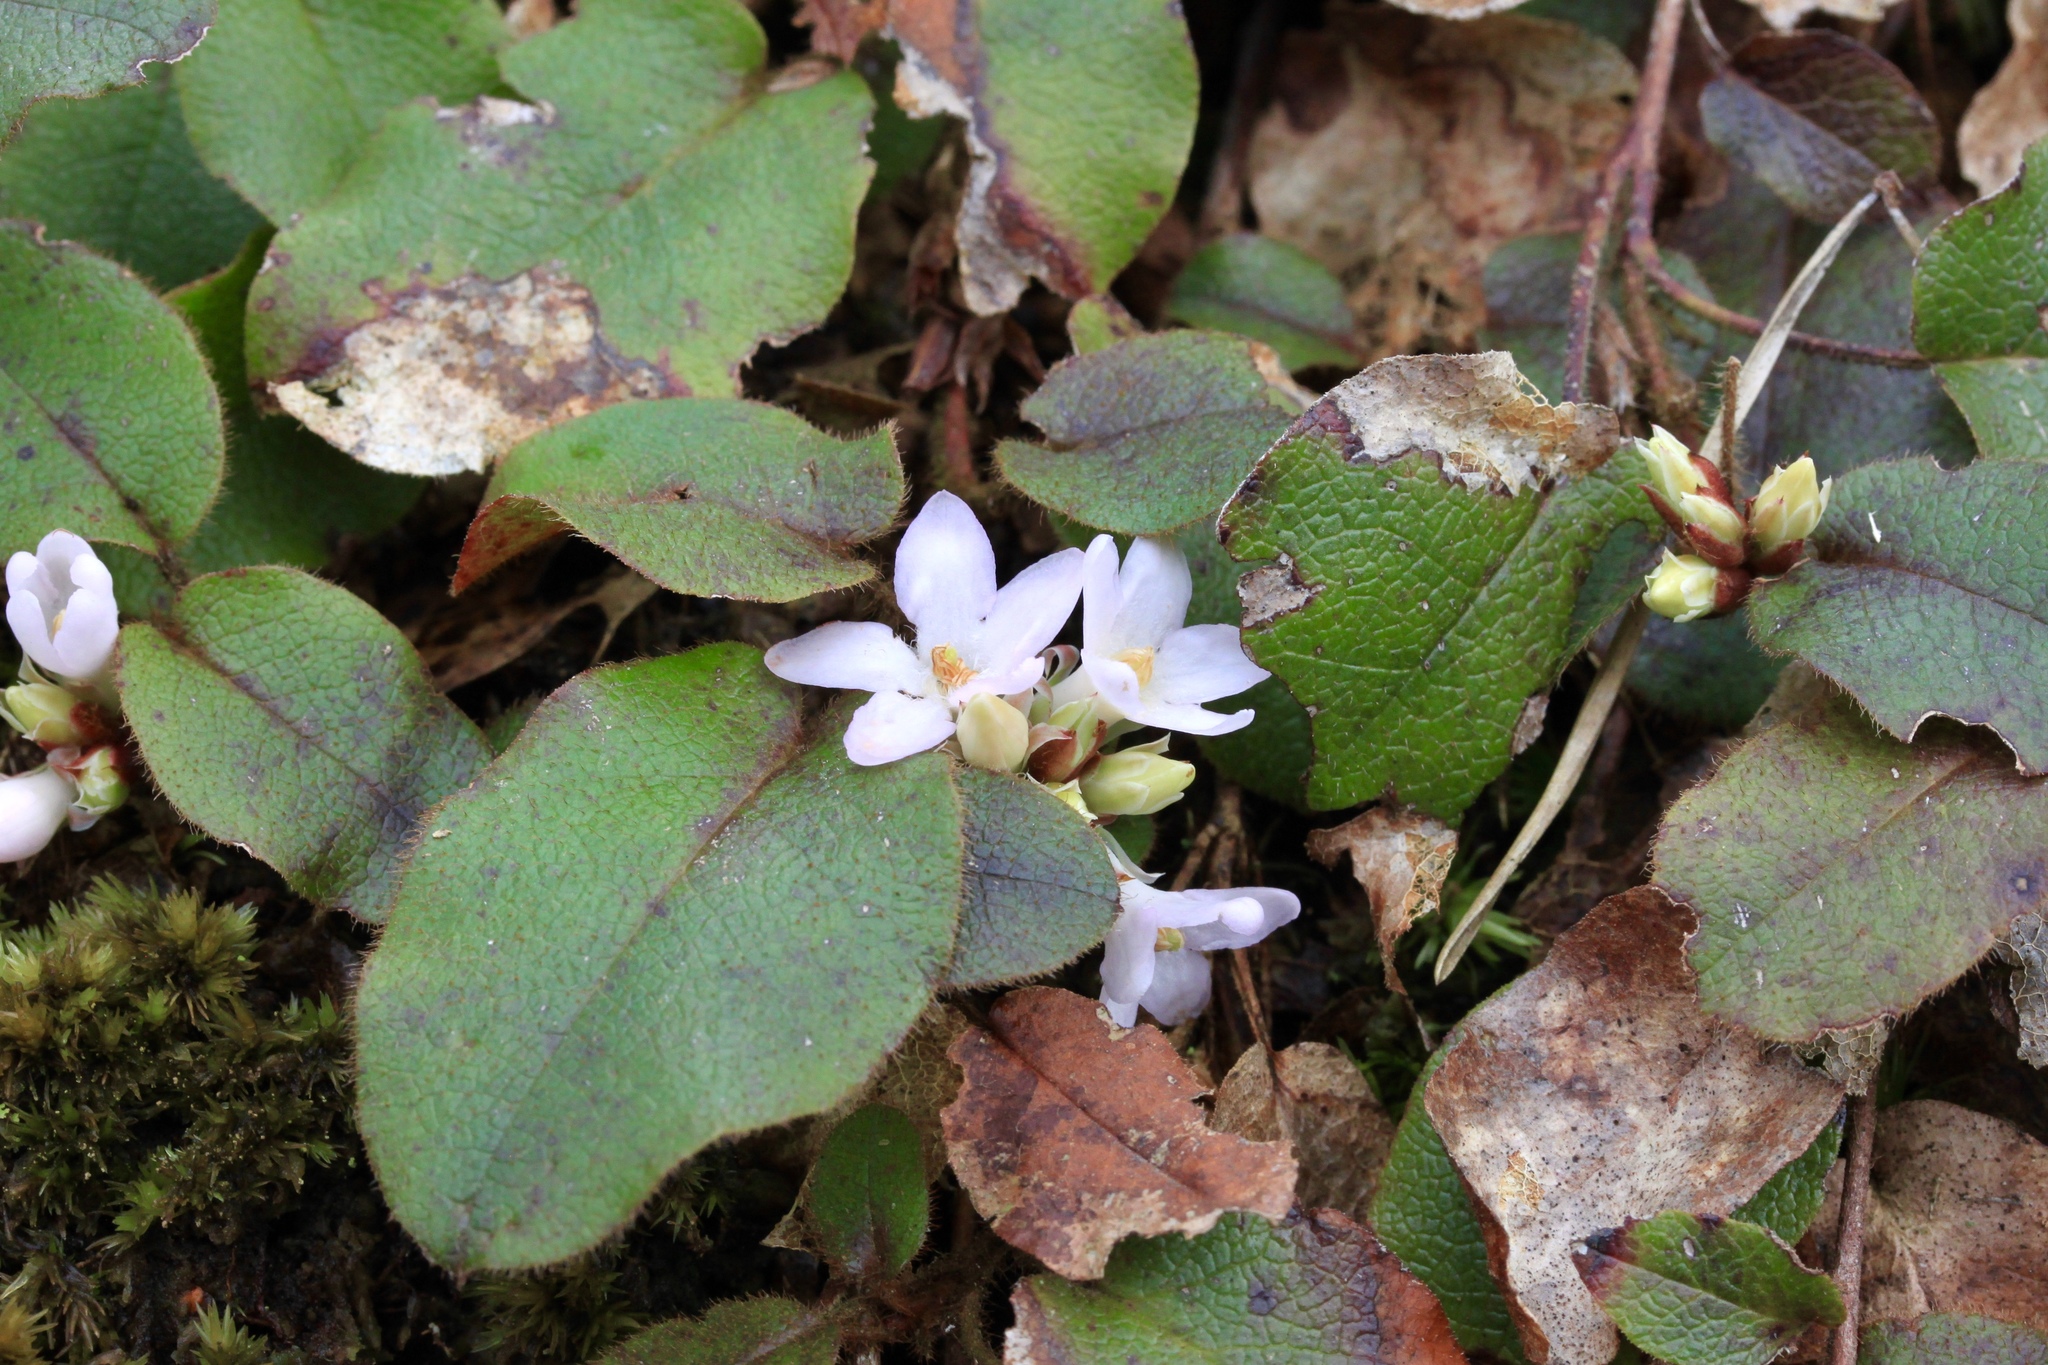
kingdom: Plantae
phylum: Tracheophyta
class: Magnoliopsida
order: Ericales
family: Ericaceae
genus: Epigaea
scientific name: Epigaea repens
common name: Gravelroot
